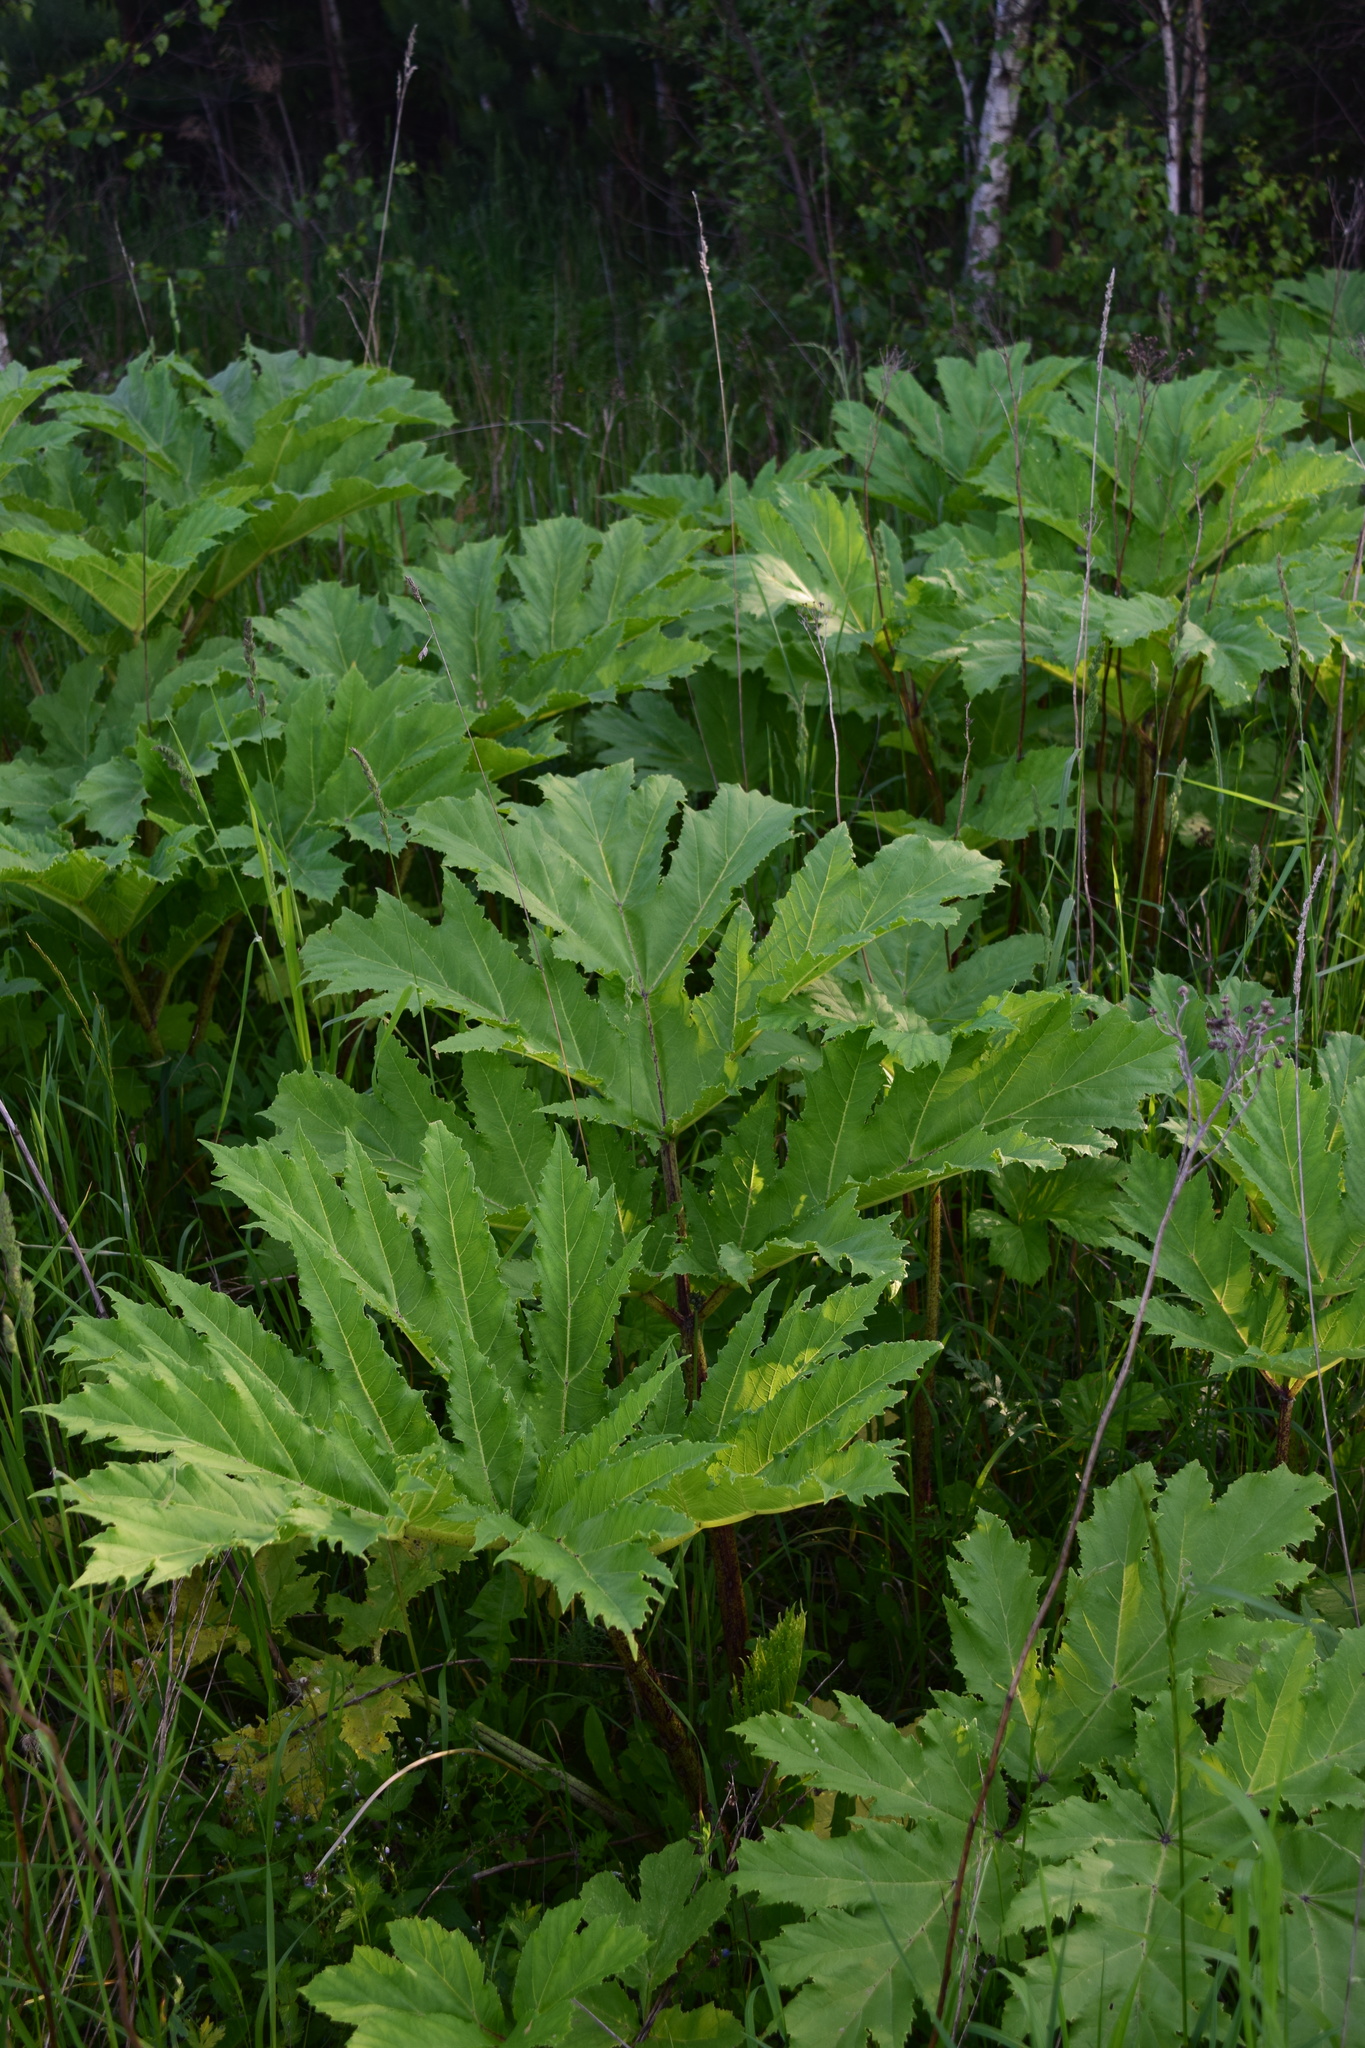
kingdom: Plantae
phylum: Tracheophyta
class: Magnoliopsida
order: Apiales
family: Apiaceae
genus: Heracleum
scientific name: Heracleum sosnowskyi
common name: Sosnowsky's hogweed
